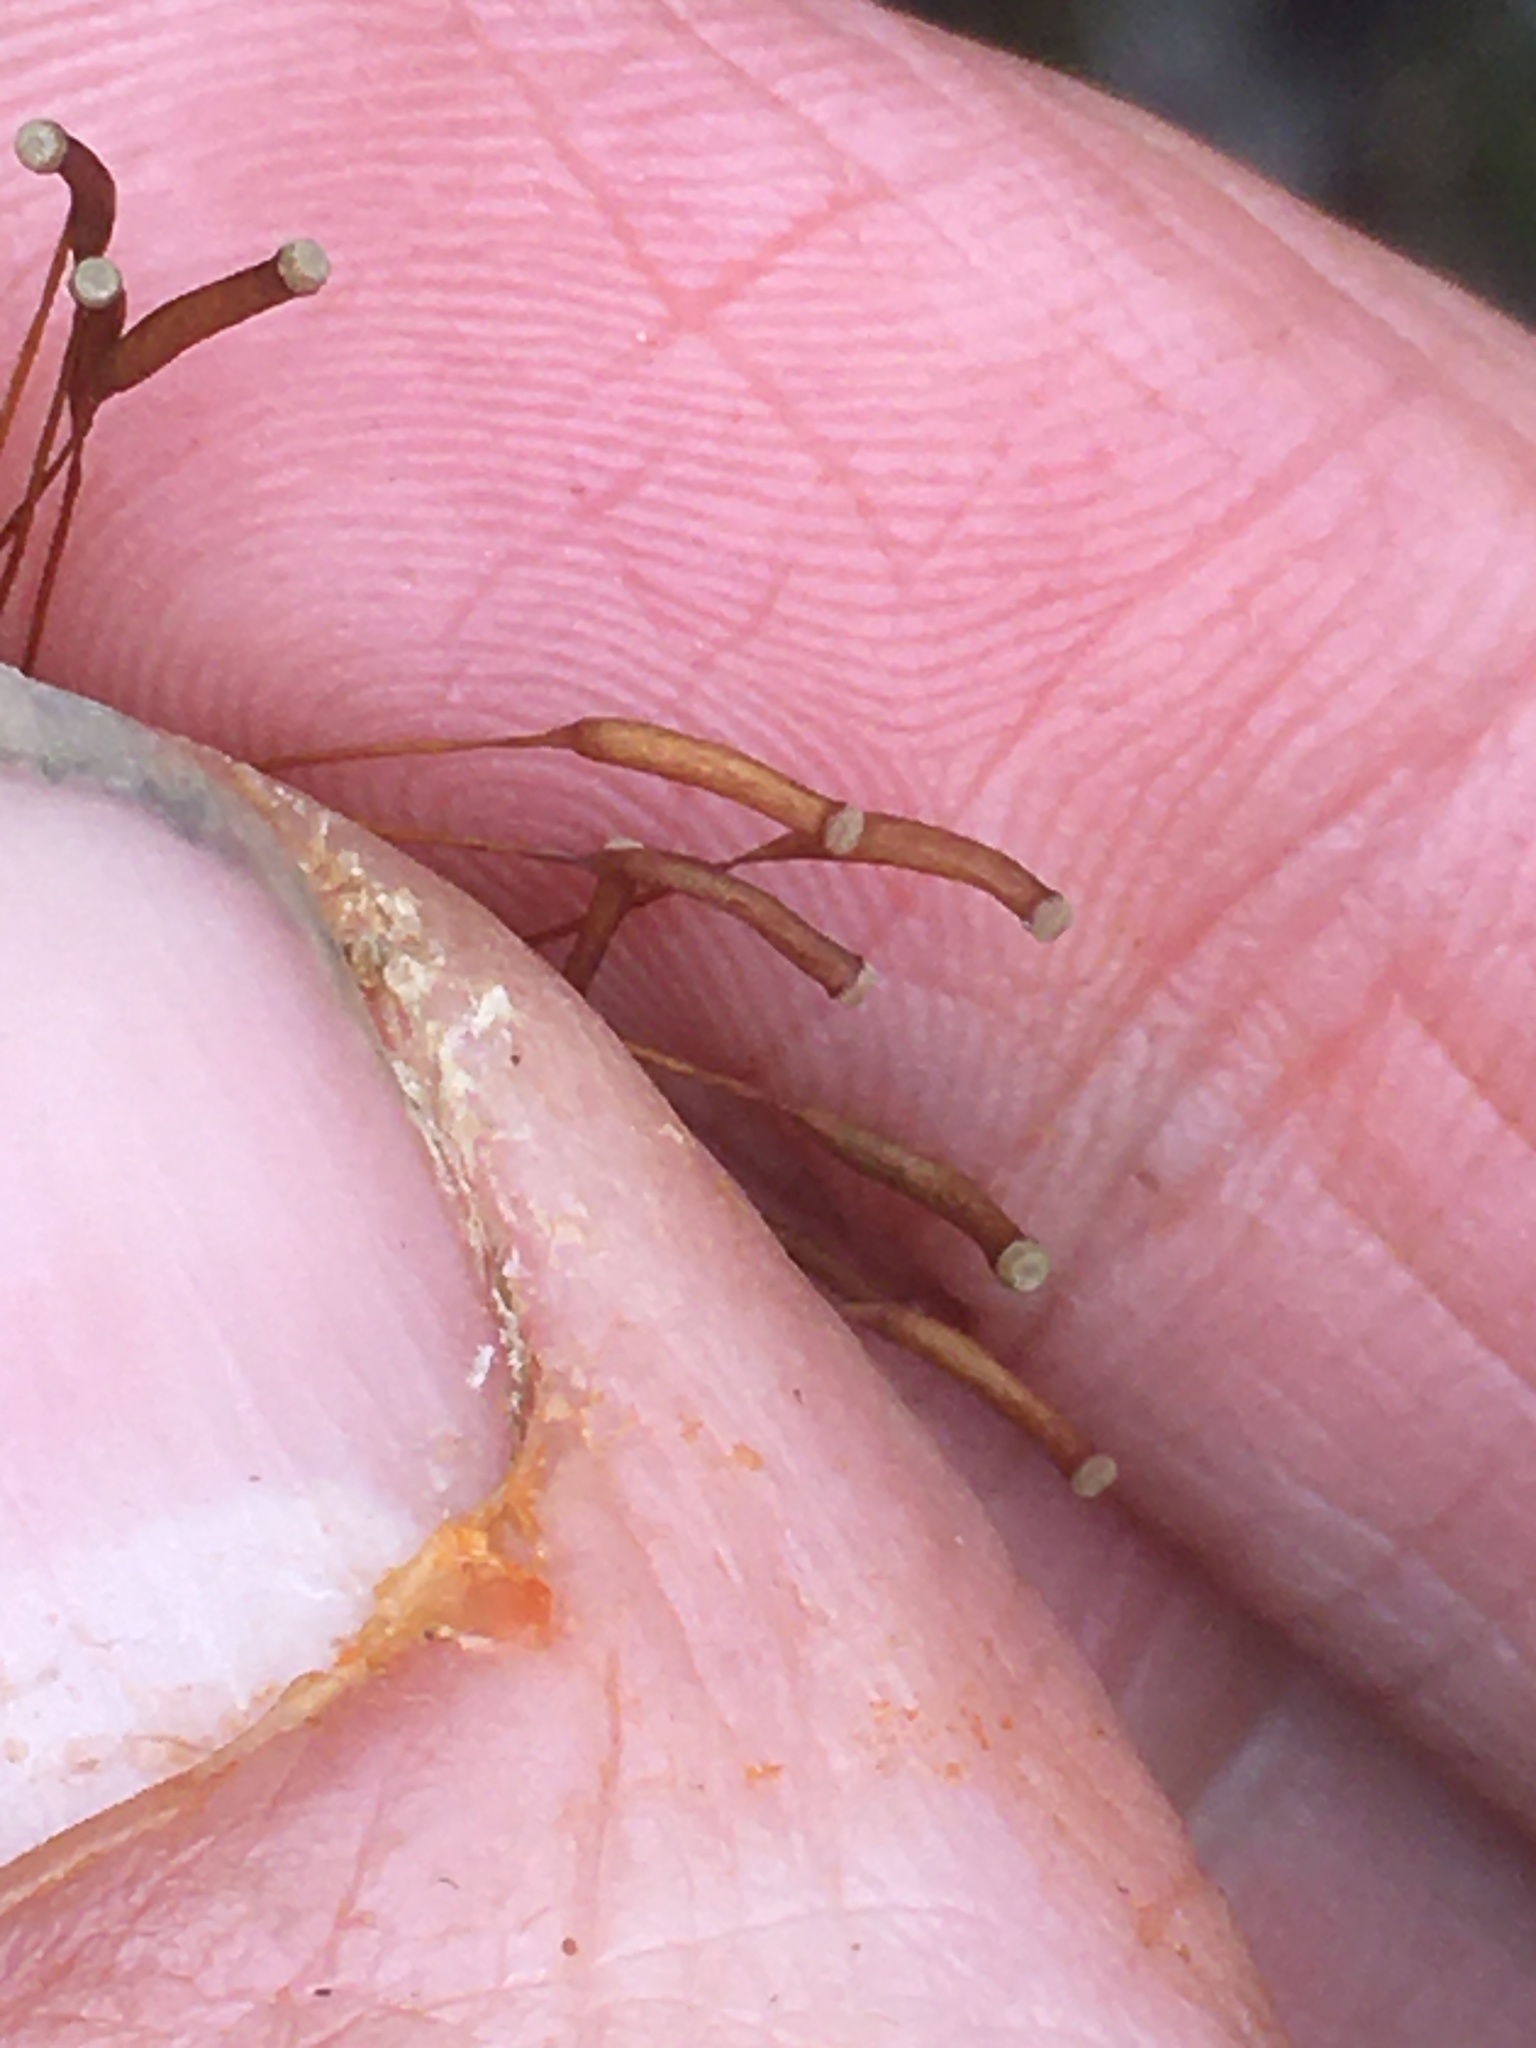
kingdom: Plantae
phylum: Bryophyta
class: Polytrichopsida
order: Polytrichales
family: Polytrichaceae
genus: Atrichum
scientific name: Atrichum angustatum
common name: Lesser smoothcap
